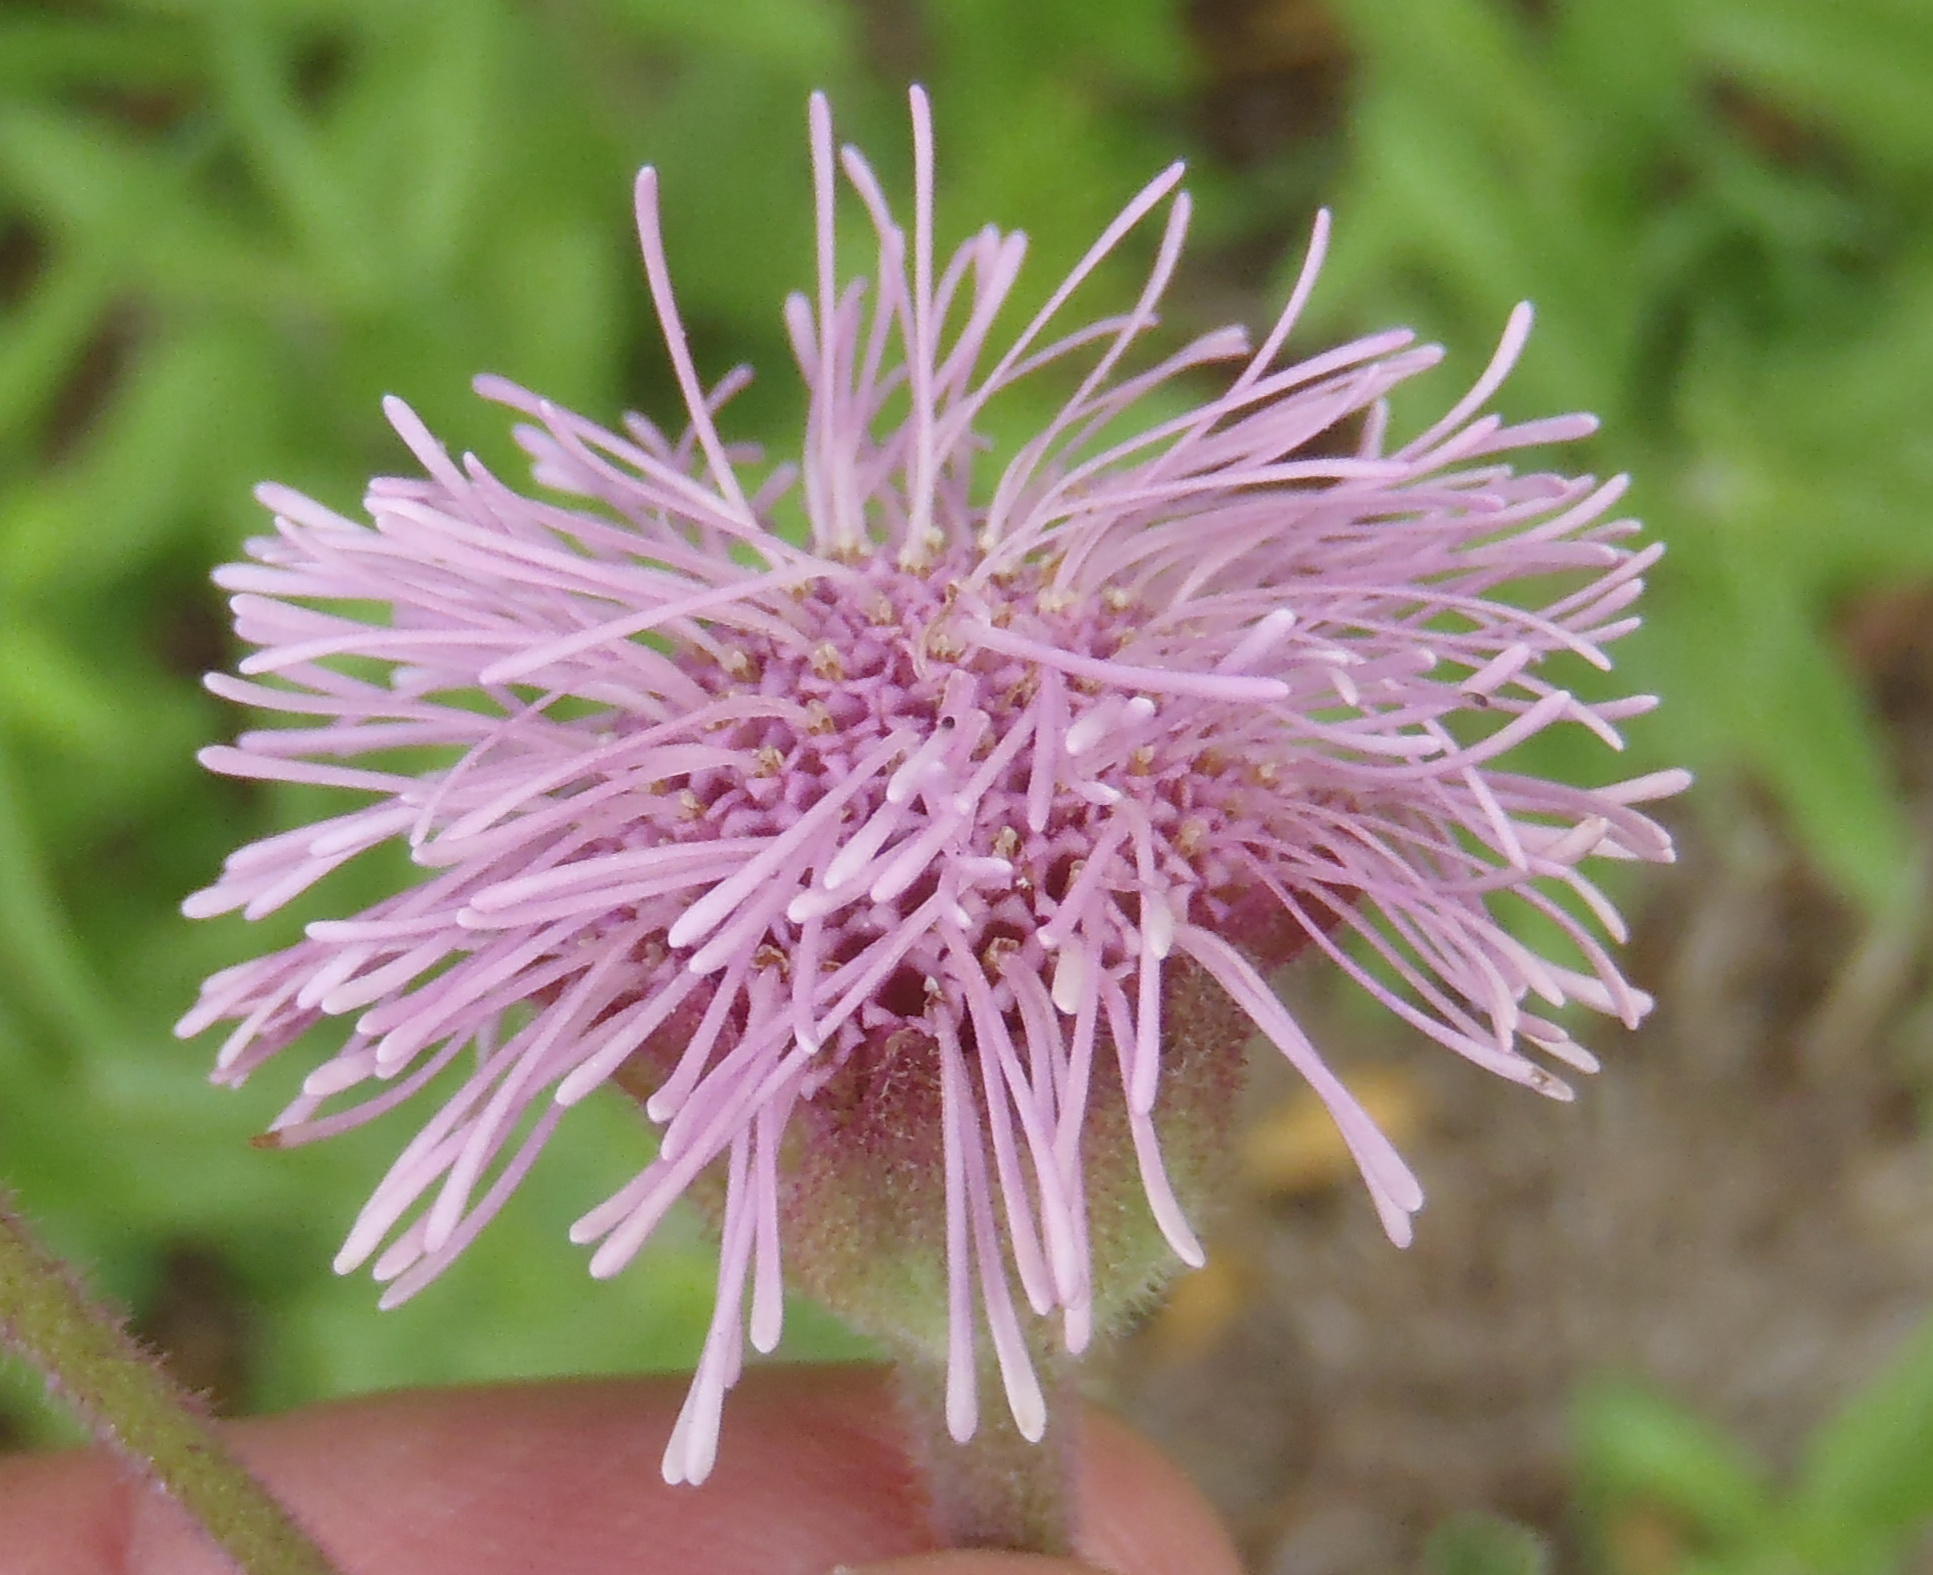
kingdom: Plantae
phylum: Tracheophyta
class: Magnoliopsida
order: Asterales
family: Asteraceae
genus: Campuloclinium
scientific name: Campuloclinium macrocephalum
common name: Pompomweed
